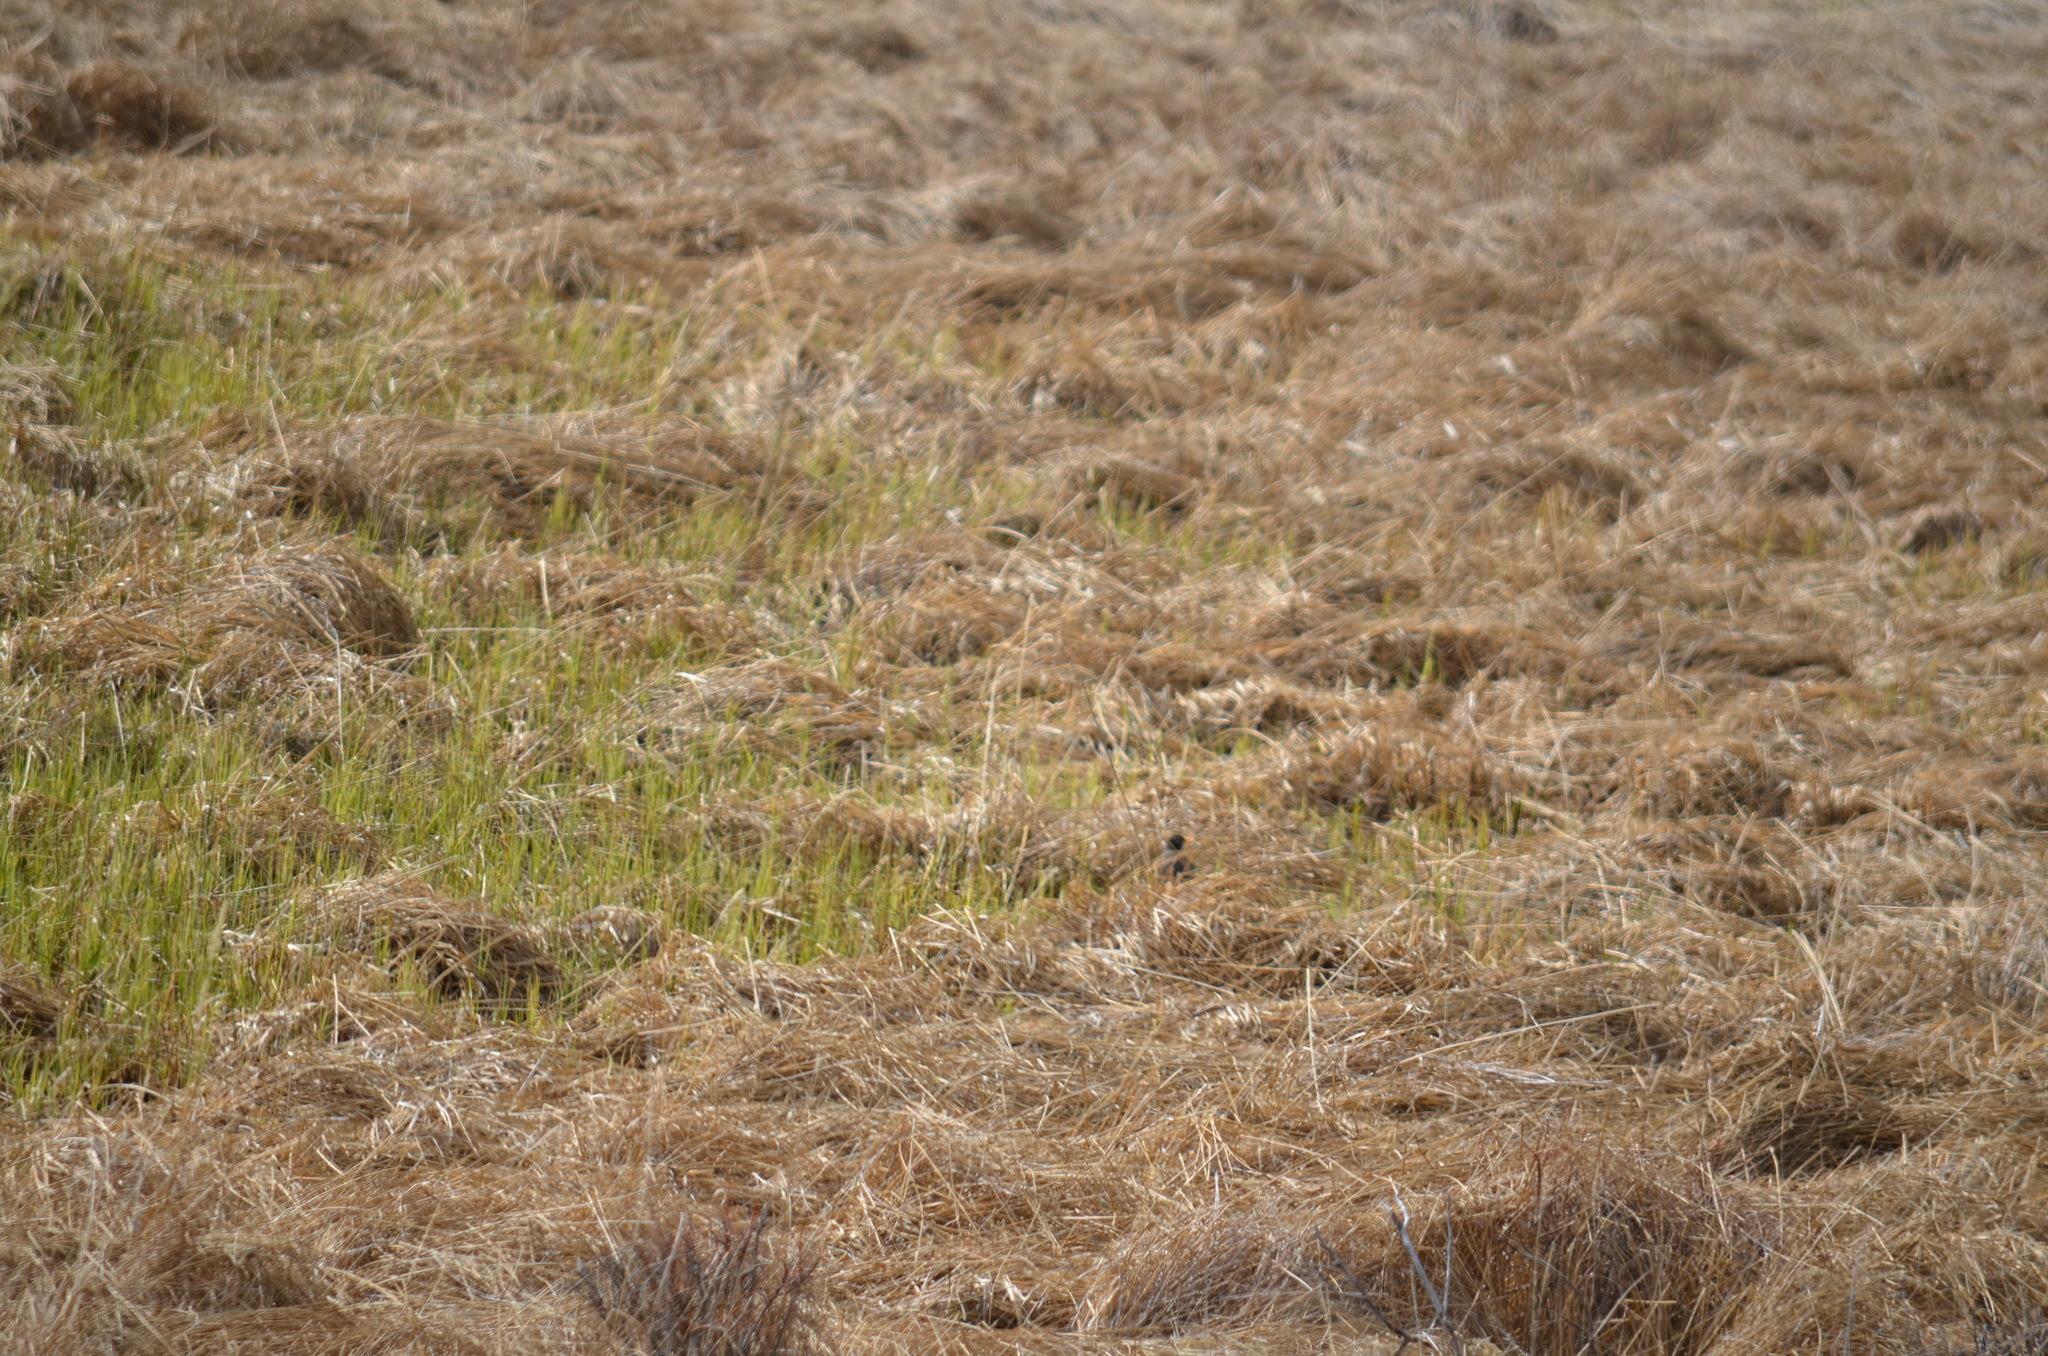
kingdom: Animalia
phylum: Chordata
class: Aves
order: Passeriformes
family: Turdidae
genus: Turdus
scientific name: Turdus migratorius
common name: American robin
